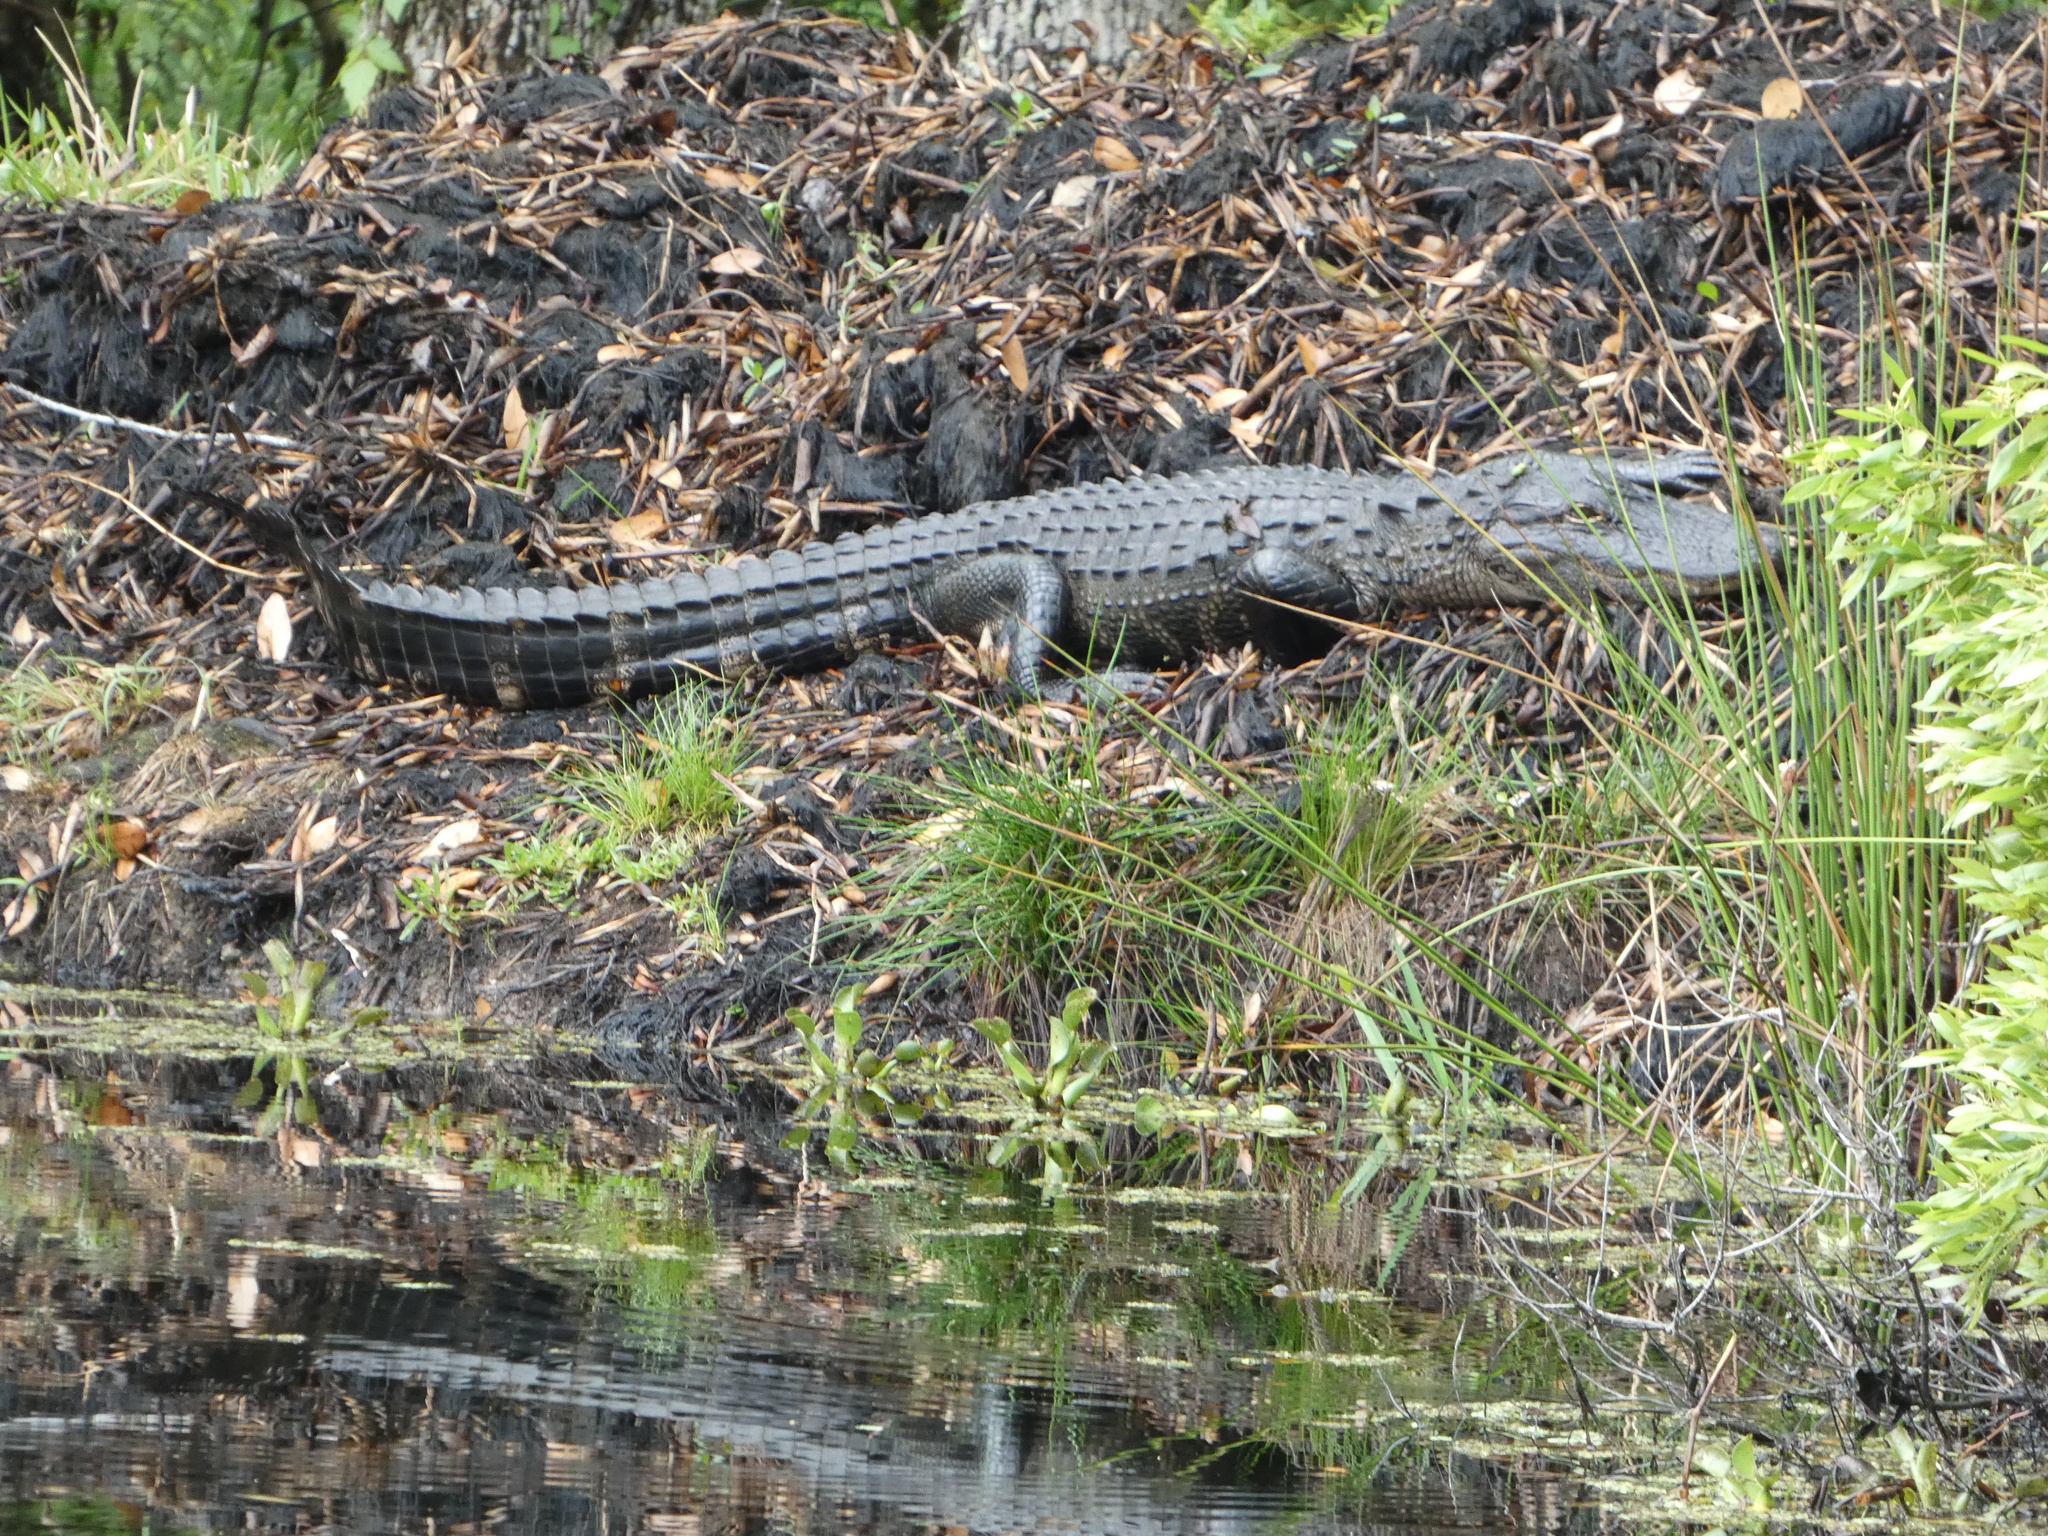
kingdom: Animalia
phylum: Chordata
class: Crocodylia
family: Alligatoridae
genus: Alligator
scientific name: Alligator mississippiensis
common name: American alligator
